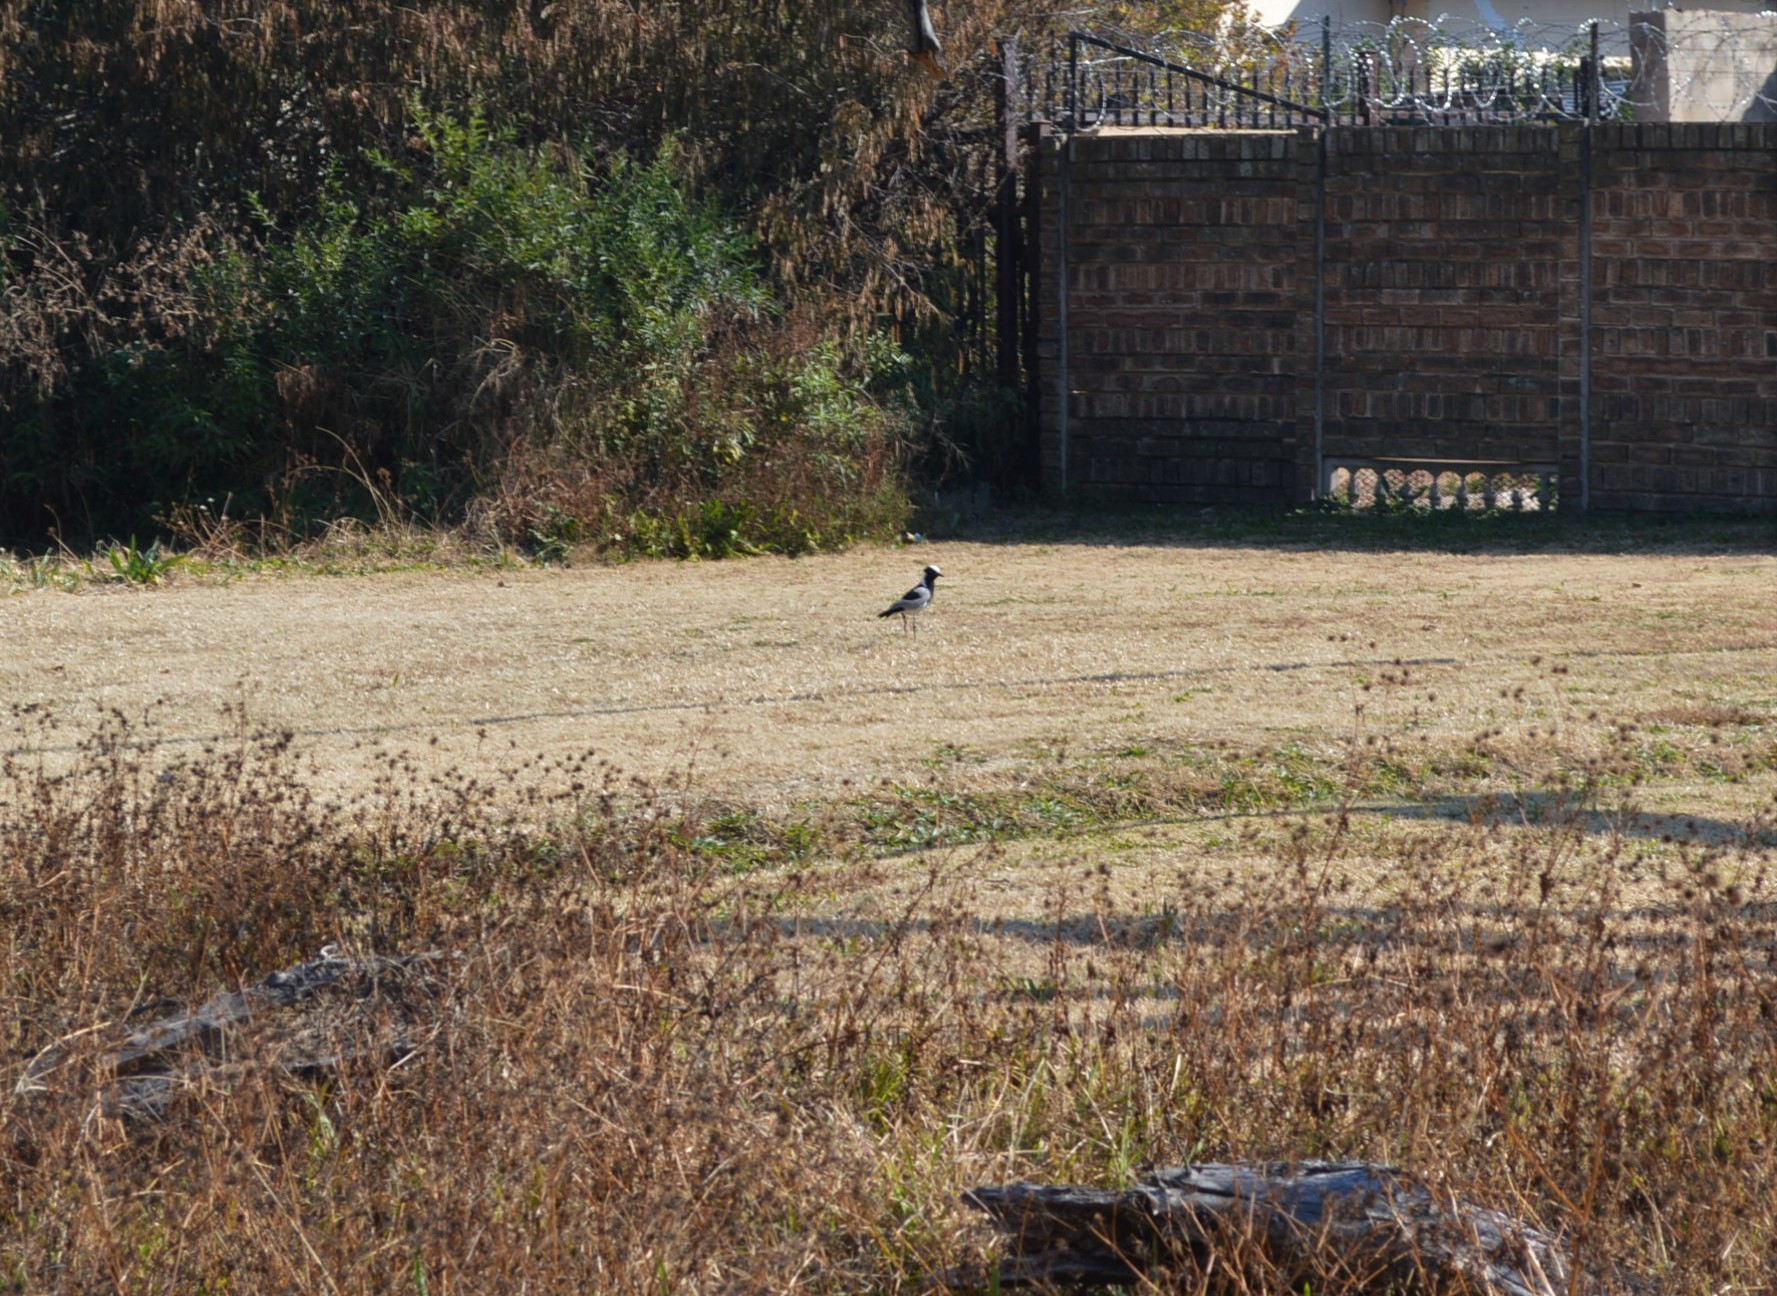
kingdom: Animalia
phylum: Chordata
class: Aves
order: Charadriiformes
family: Charadriidae
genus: Vanellus
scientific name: Vanellus armatus
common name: Blacksmith lapwing
